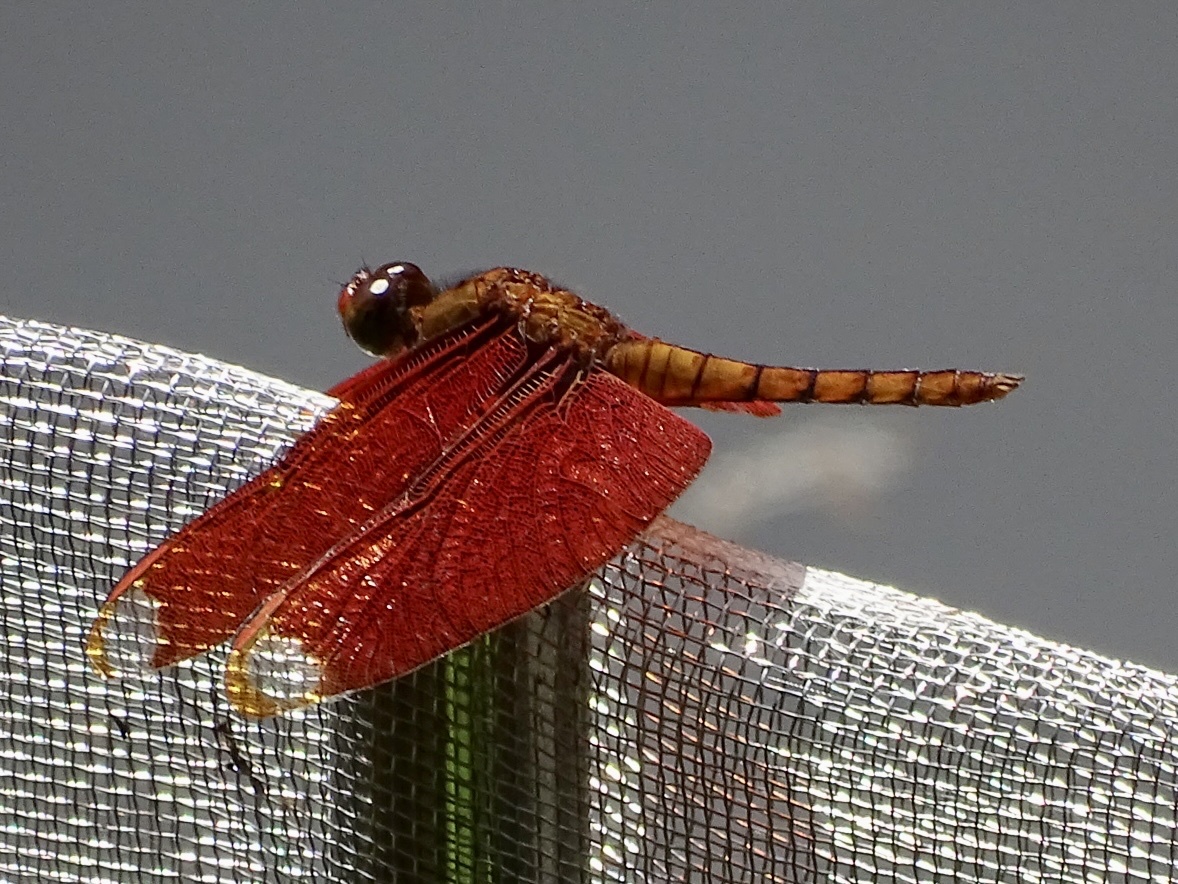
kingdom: Animalia
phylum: Arthropoda
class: Insecta
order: Odonata
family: Libellulidae
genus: Neurothemis
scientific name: Neurothemis fulvia
